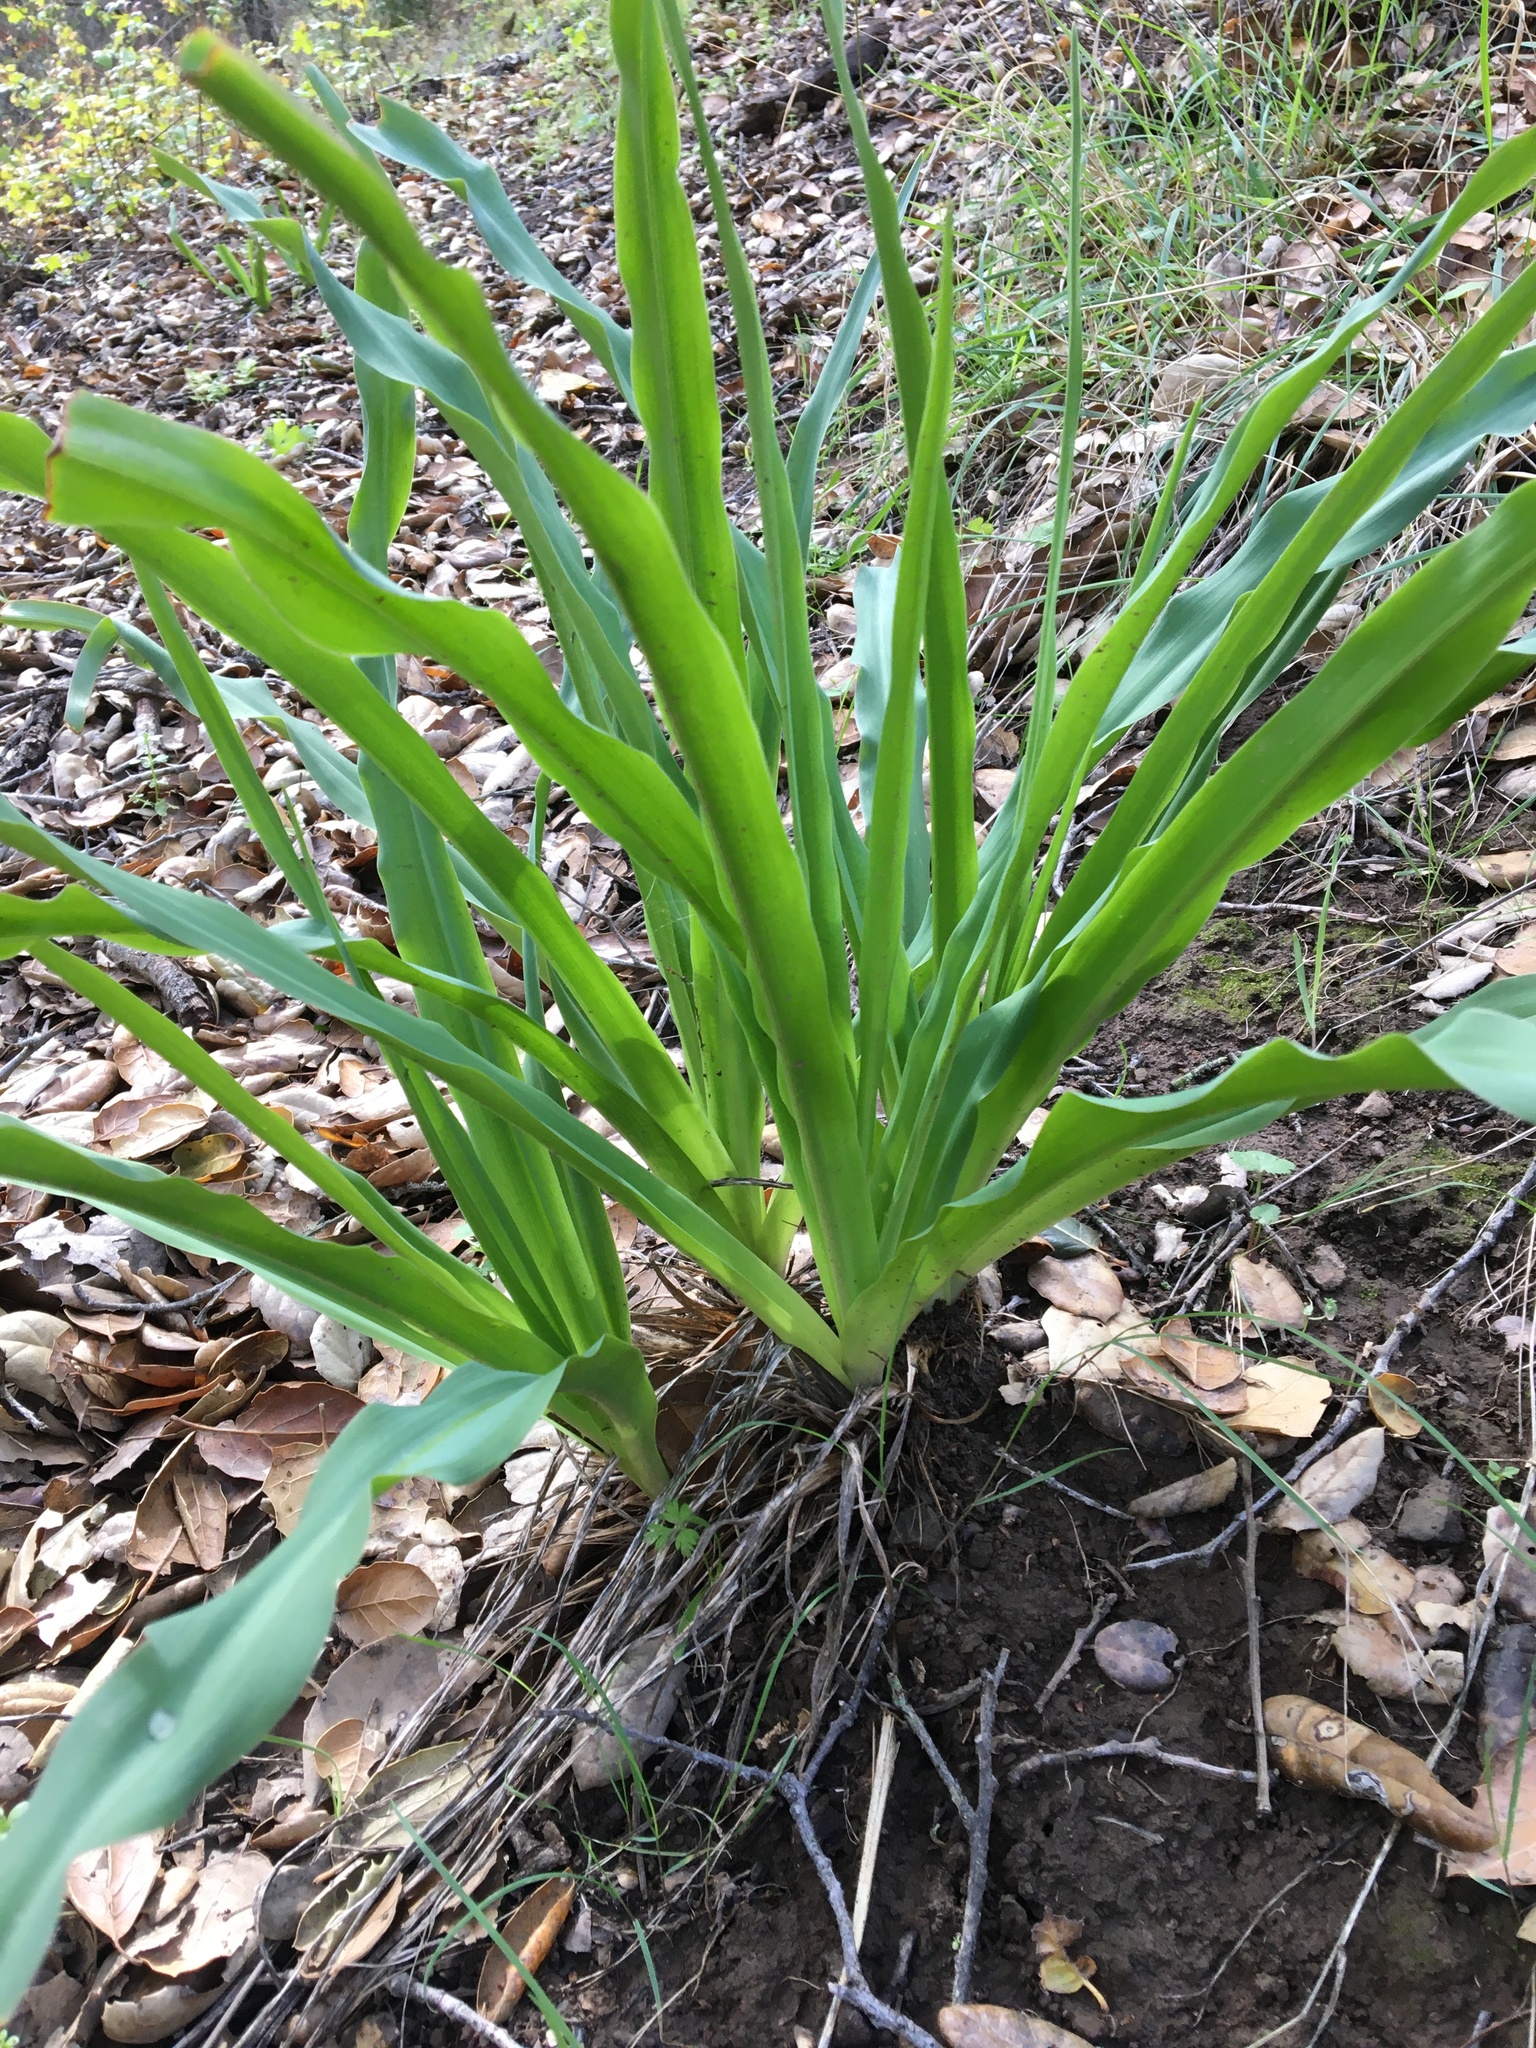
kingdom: Plantae
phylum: Tracheophyta
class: Liliopsida
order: Asparagales
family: Asparagaceae
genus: Chlorogalum
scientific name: Chlorogalum pomeridianum
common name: Amole
